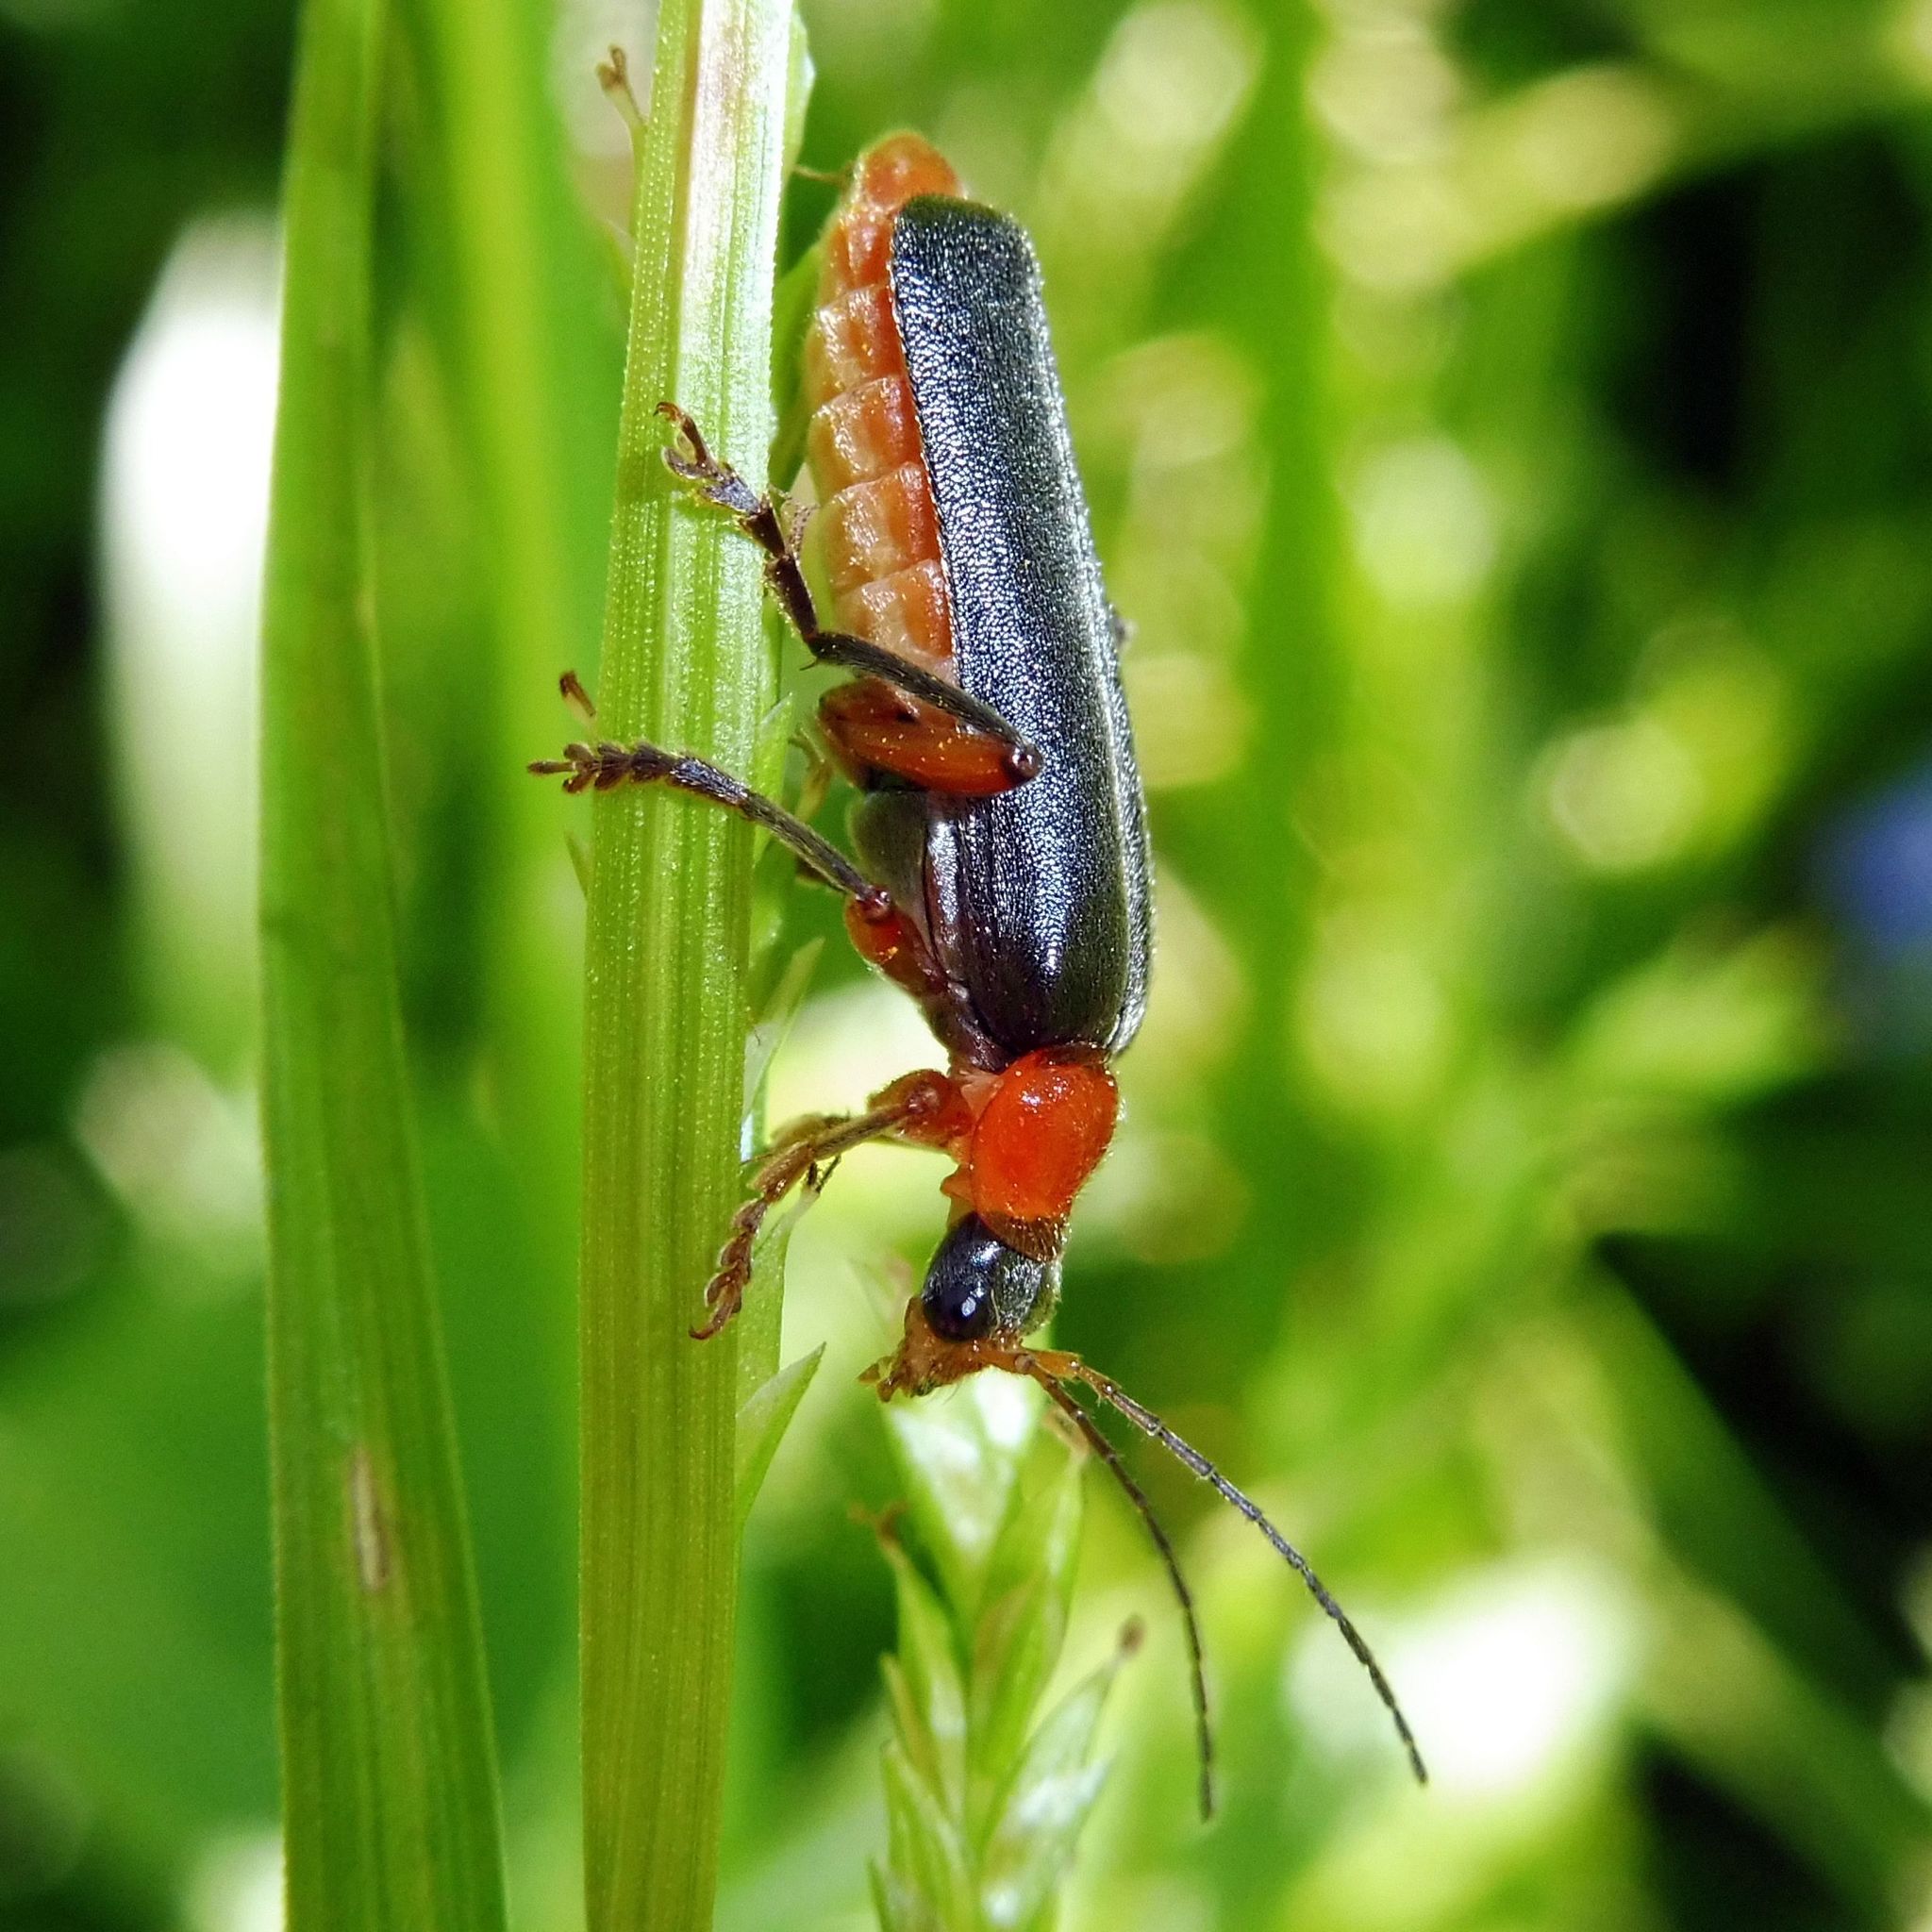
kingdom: Animalia
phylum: Arthropoda
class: Insecta
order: Coleoptera
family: Cantharidae
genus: Cantharis
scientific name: Cantharis pellucida
